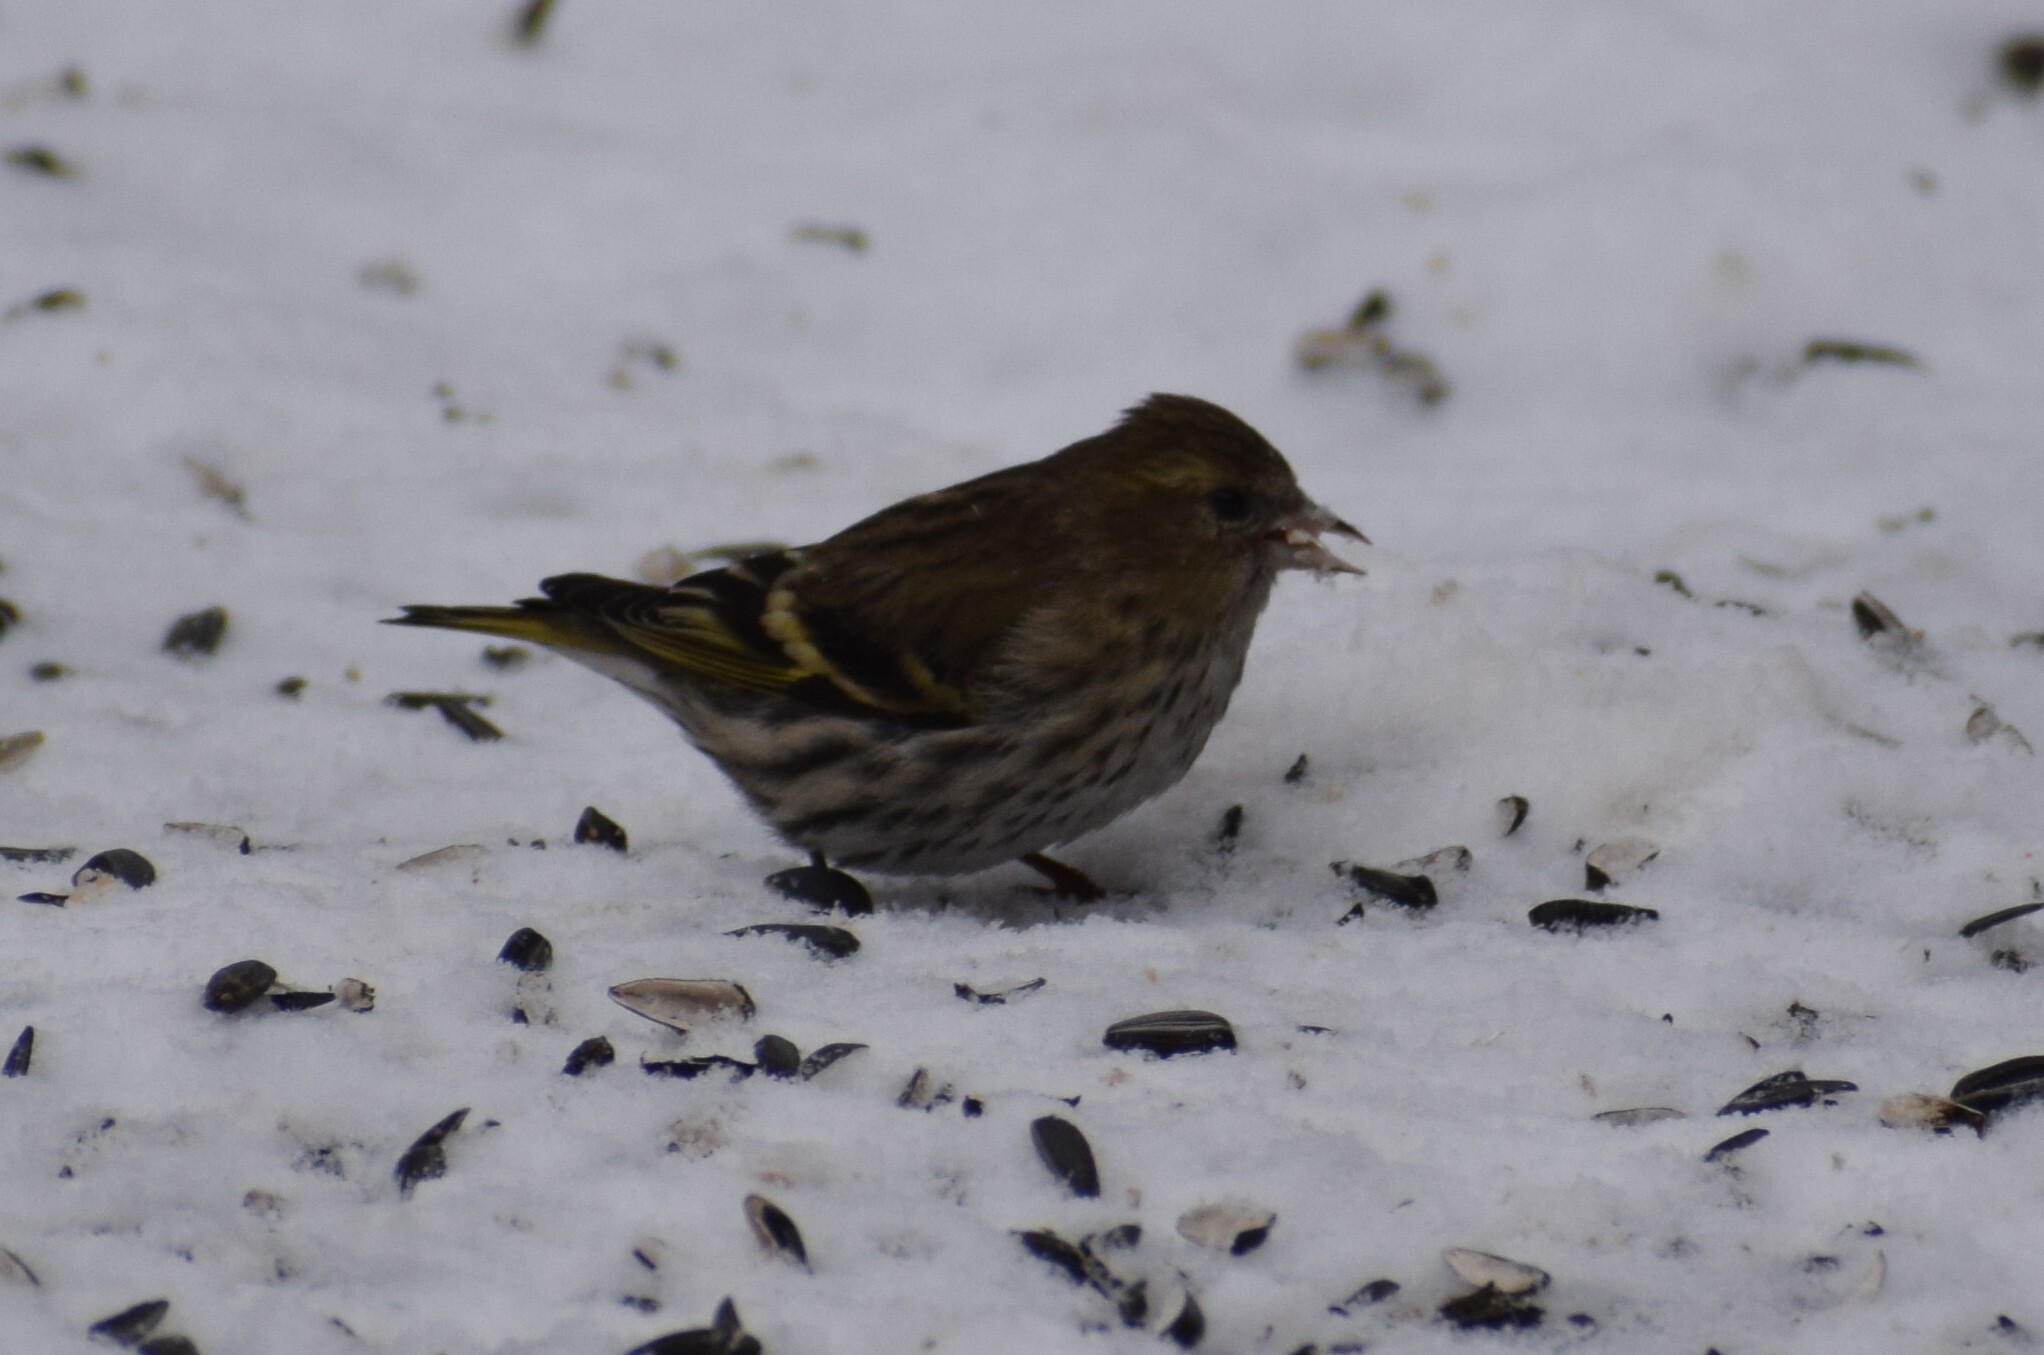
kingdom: Animalia
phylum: Chordata
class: Aves
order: Passeriformes
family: Fringillidae
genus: Spinus
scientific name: Spinus spinus
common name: Eurasian siskin
